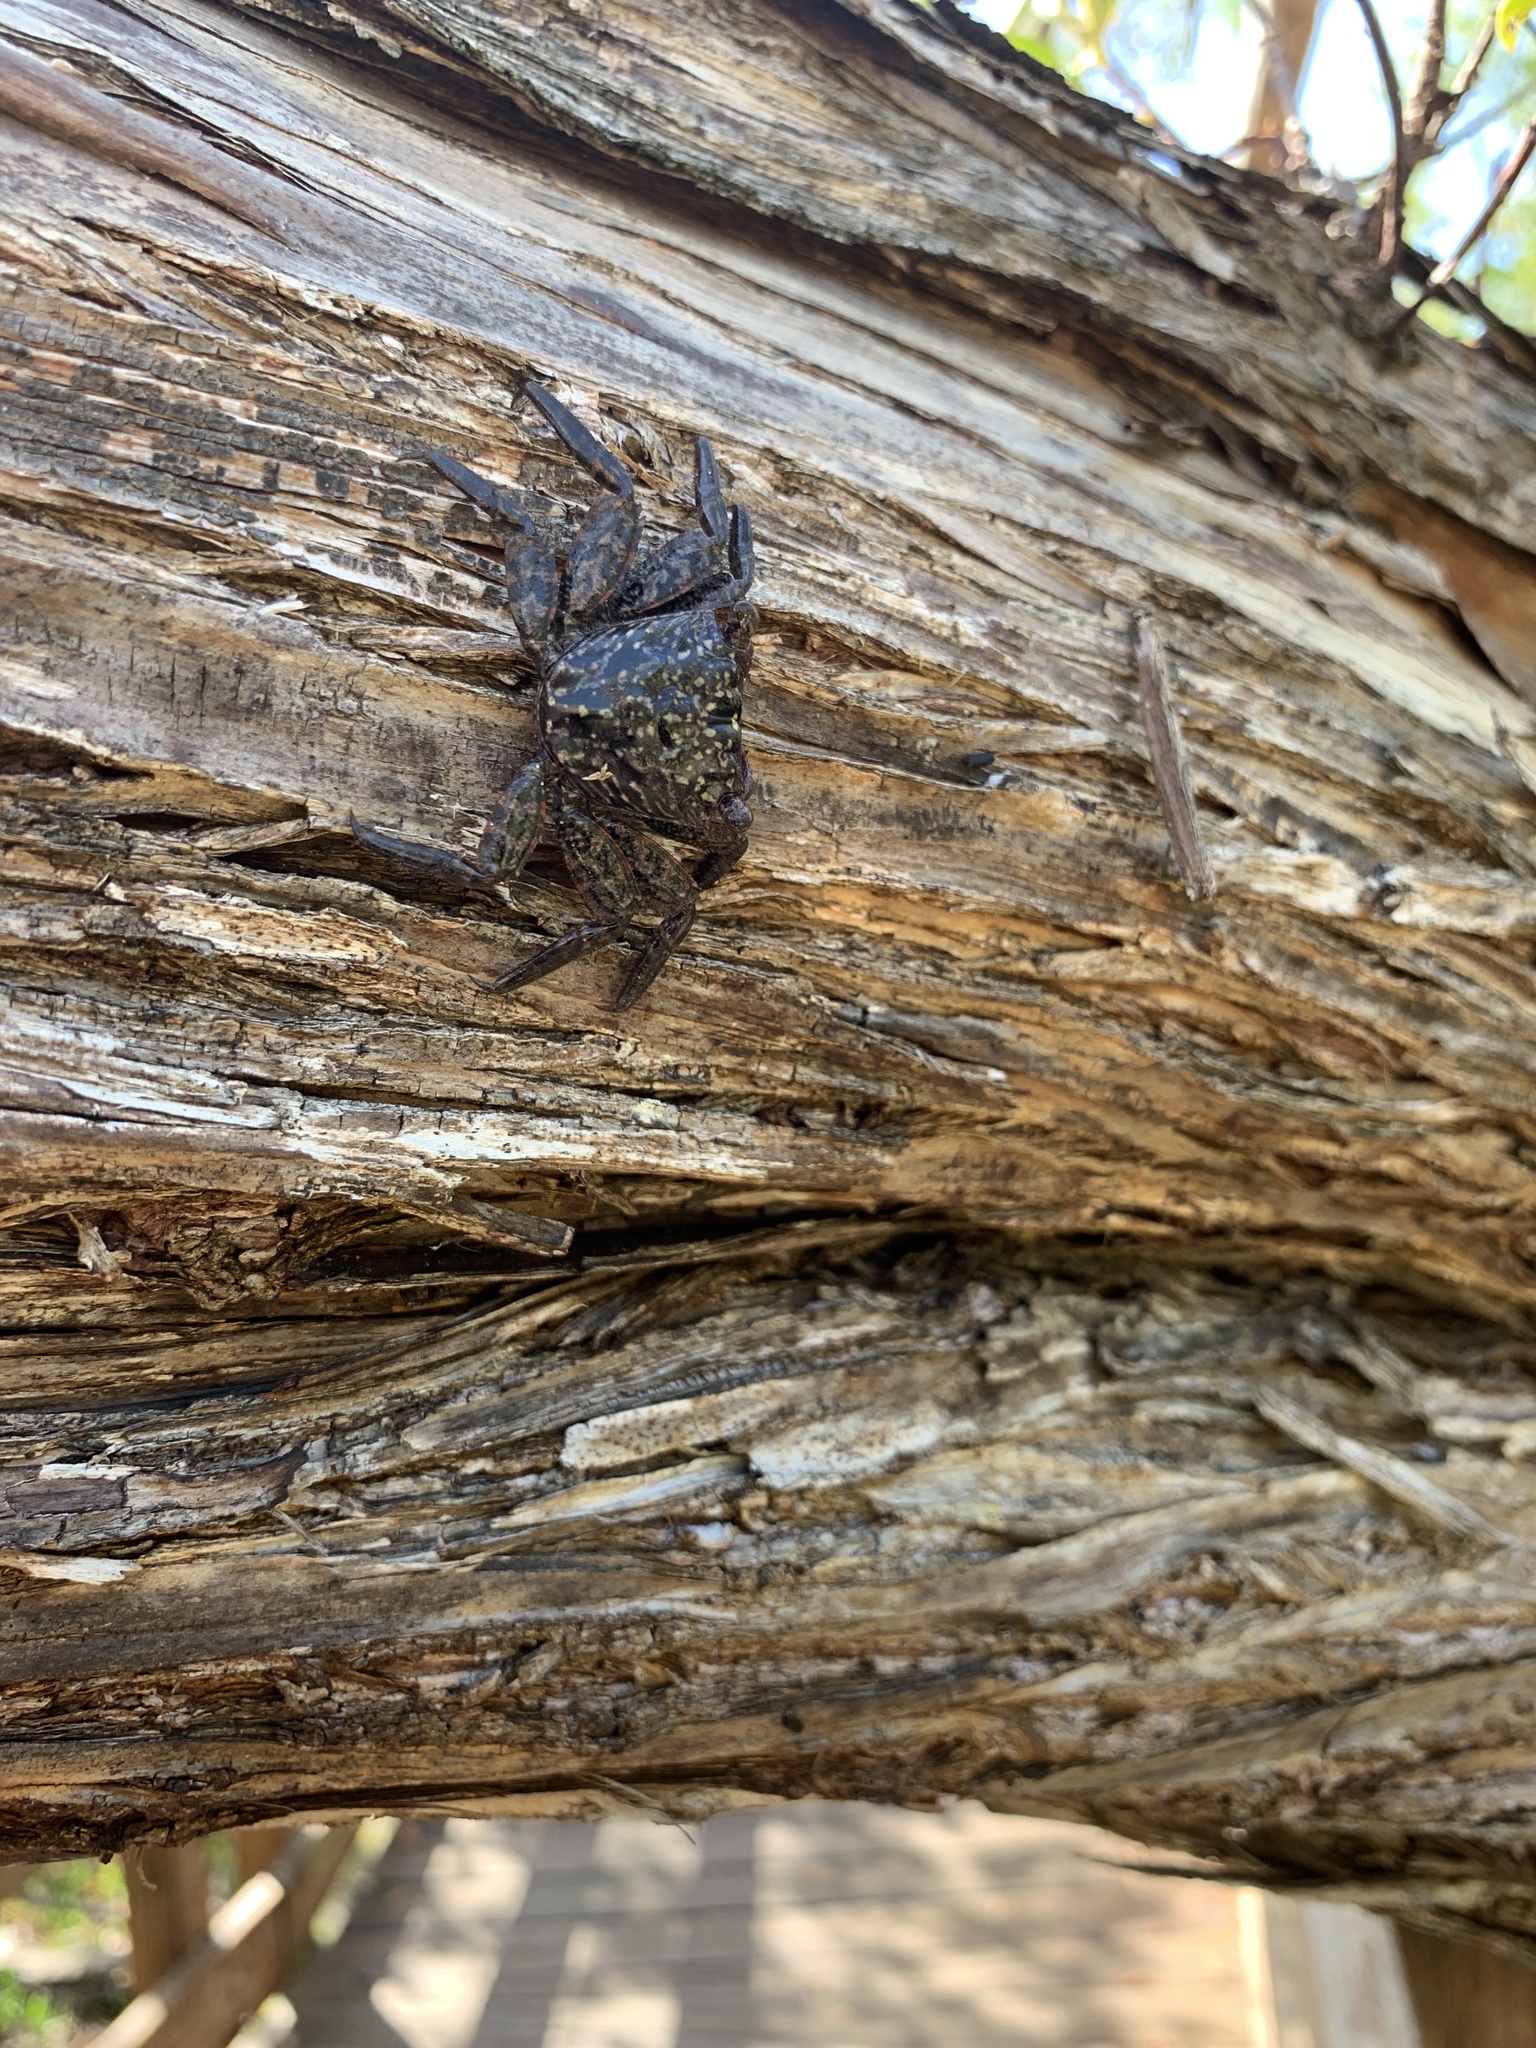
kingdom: Animalia
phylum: Arthropoda
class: Malacostraca
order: Decapoda
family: Sesarmidae
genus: Aratus
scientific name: Aratus pisonii
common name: Mangrove crab
